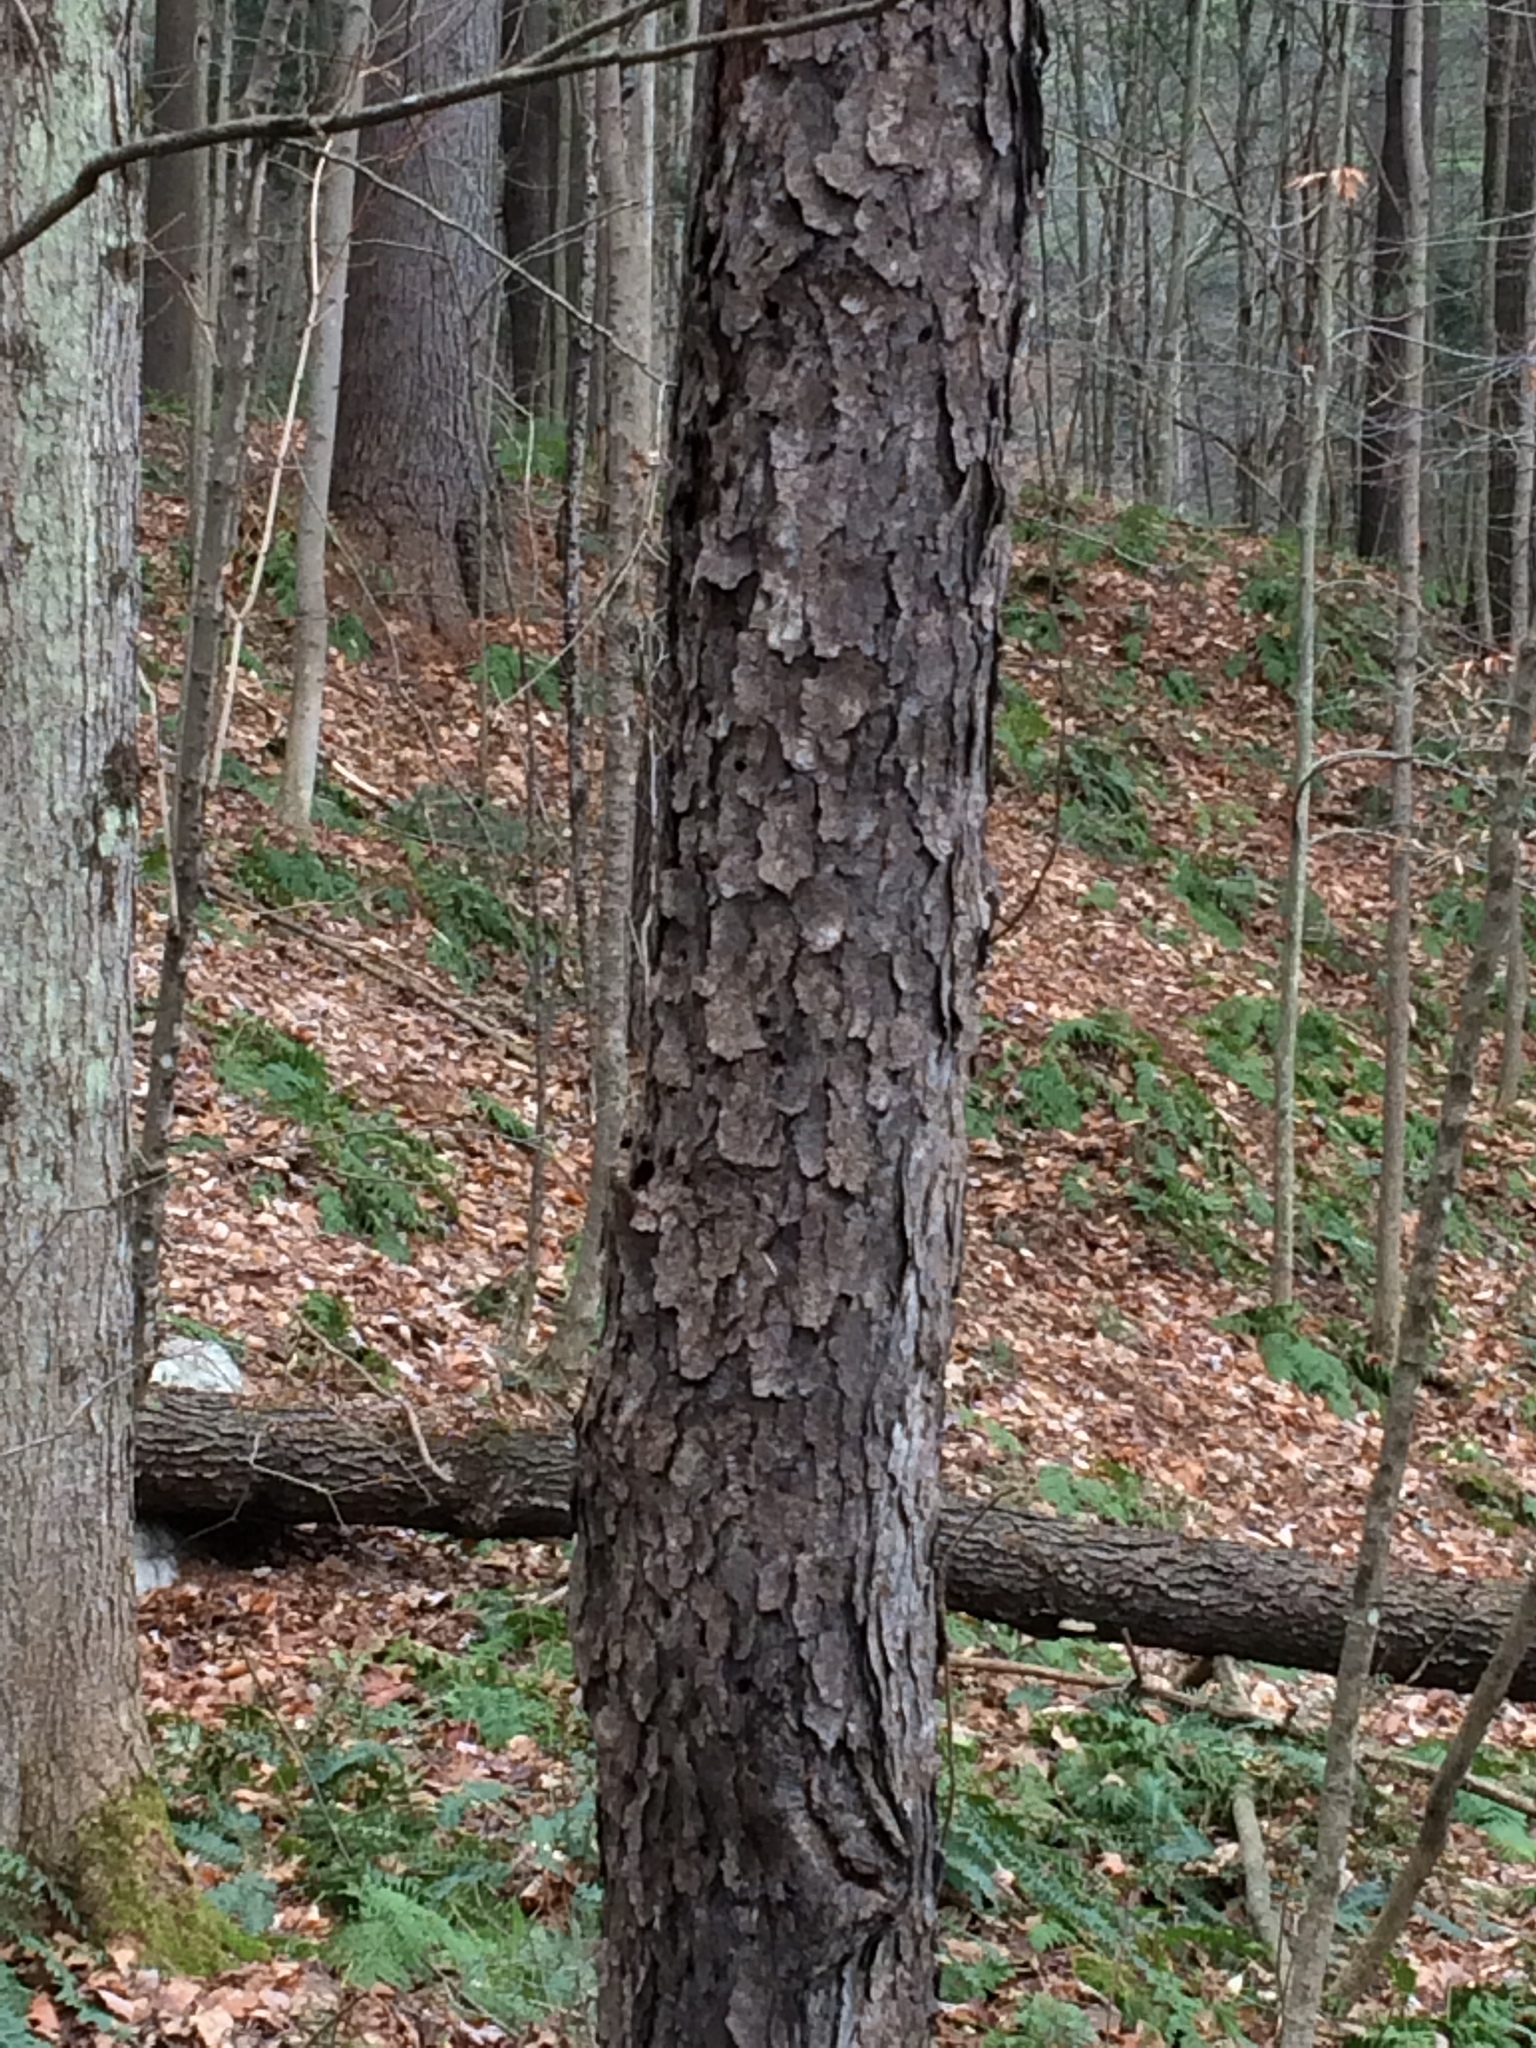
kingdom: Plantae
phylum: Tracheophyta
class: Magnoliopsida
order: Rosales
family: Rosaceae
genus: Prunus
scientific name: Prunus serotina
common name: Black cherry
